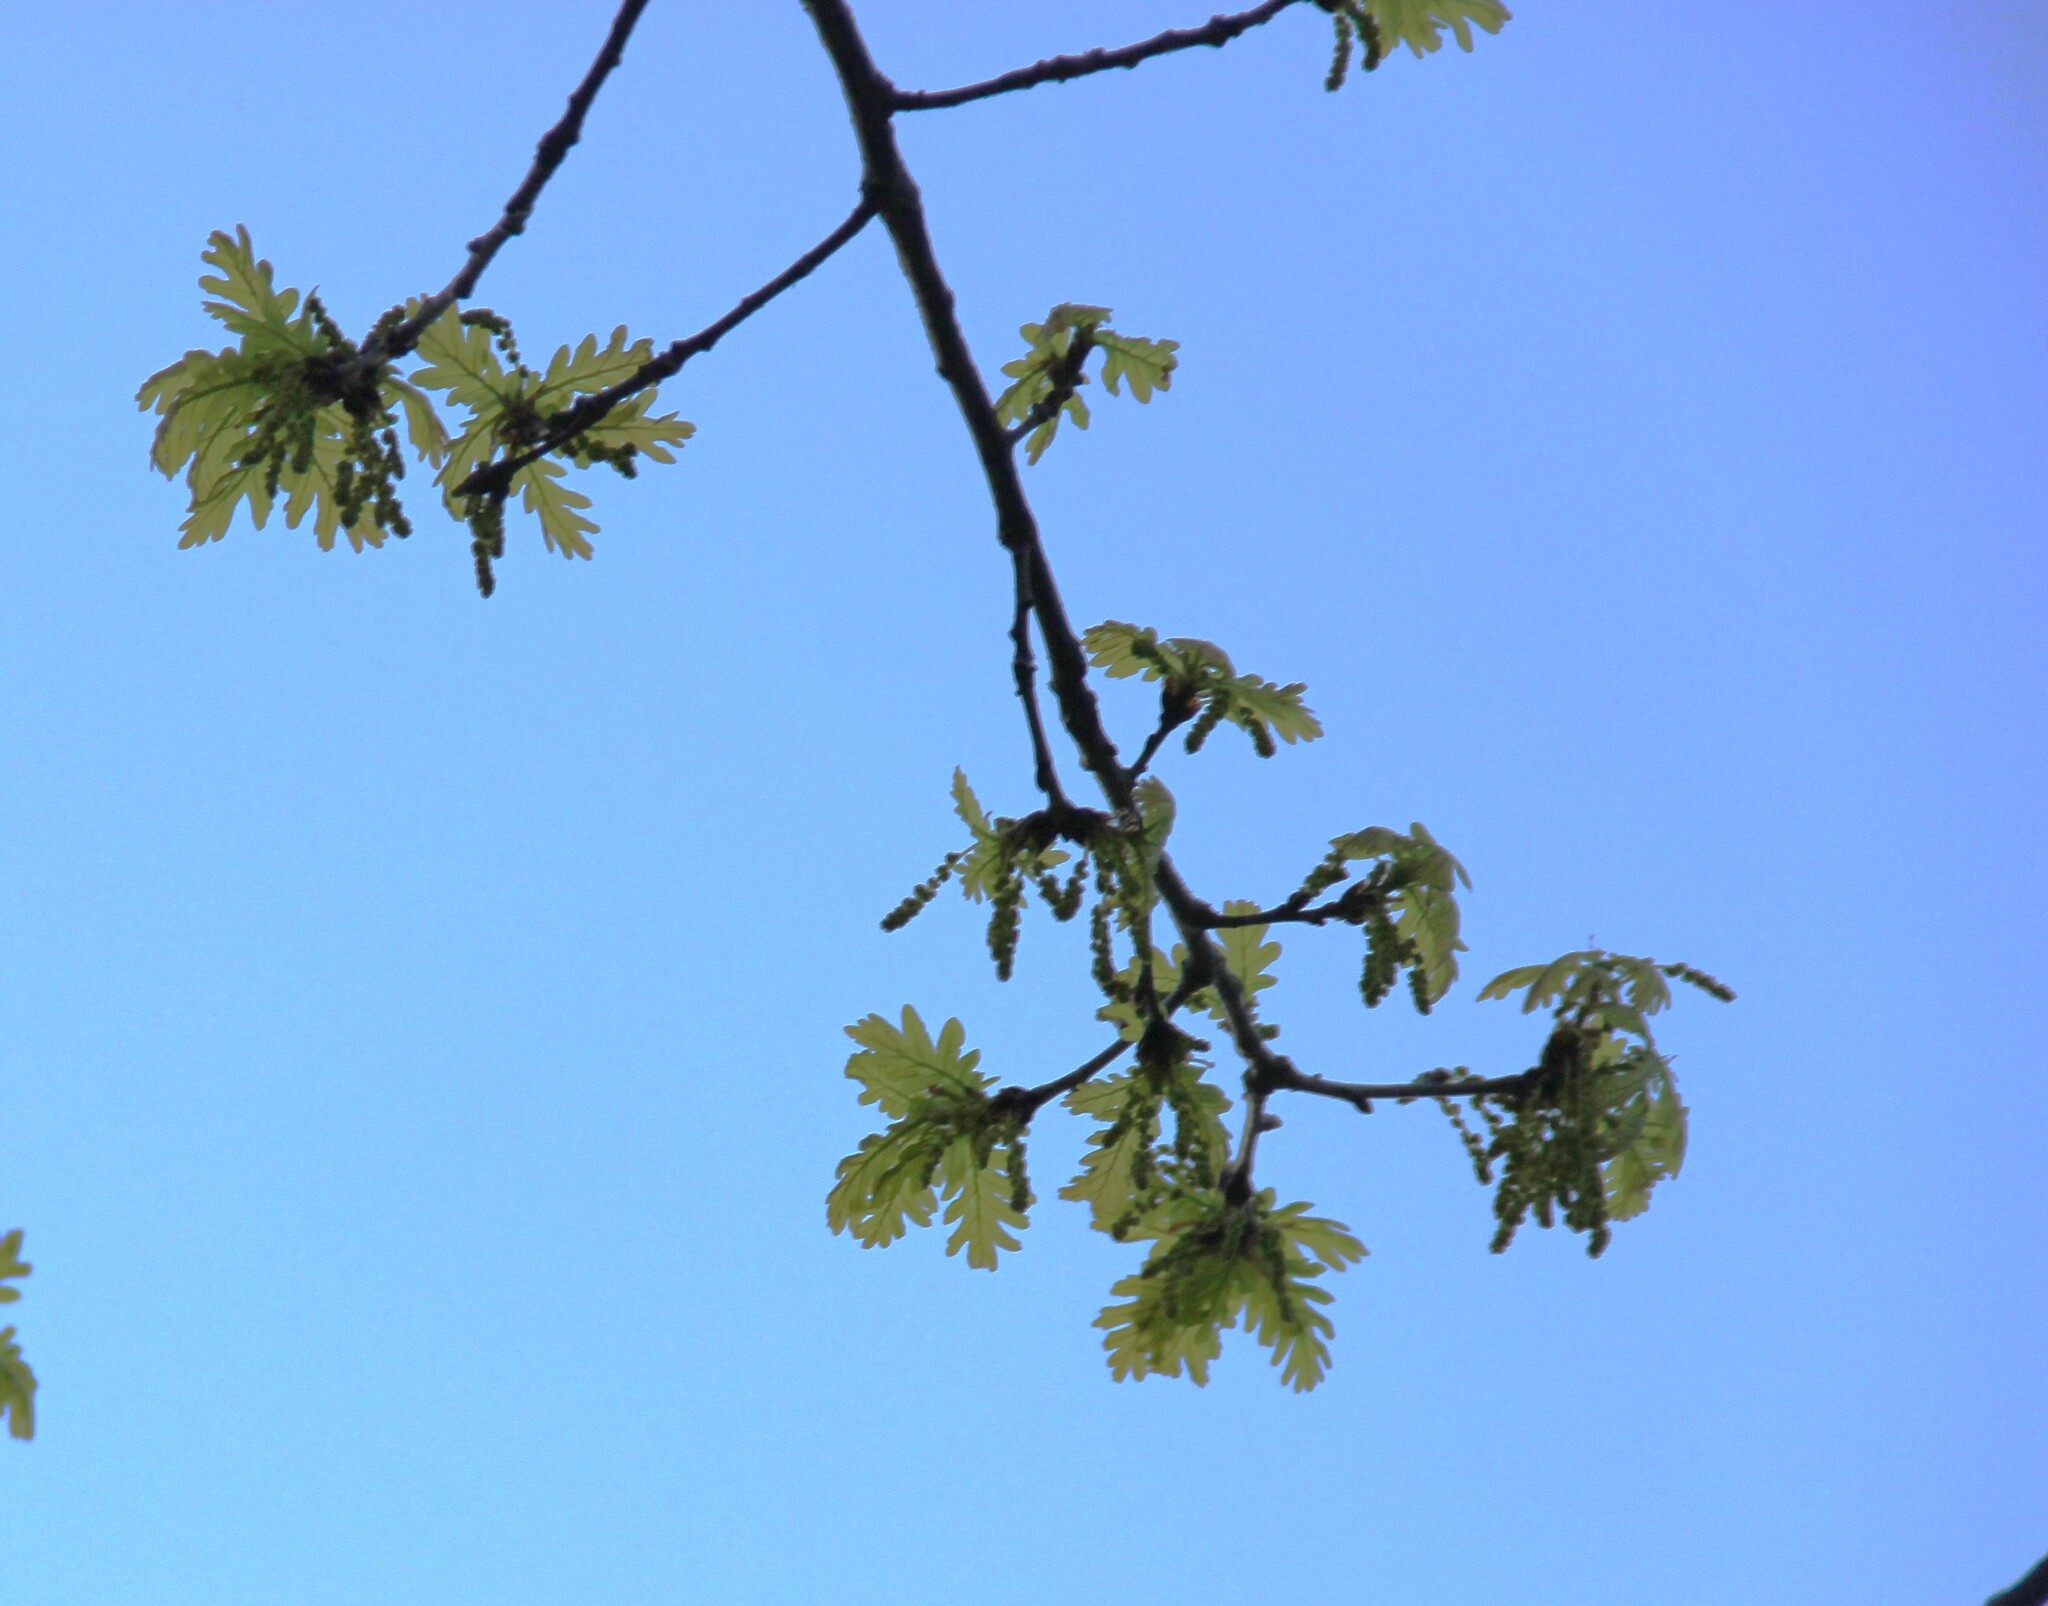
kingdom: Plantae
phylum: Tracheophyta
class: Magnoliopsida
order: Fagales
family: Fagaceae
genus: Quercus
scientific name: Quercus robur
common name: Pedunculate oak
